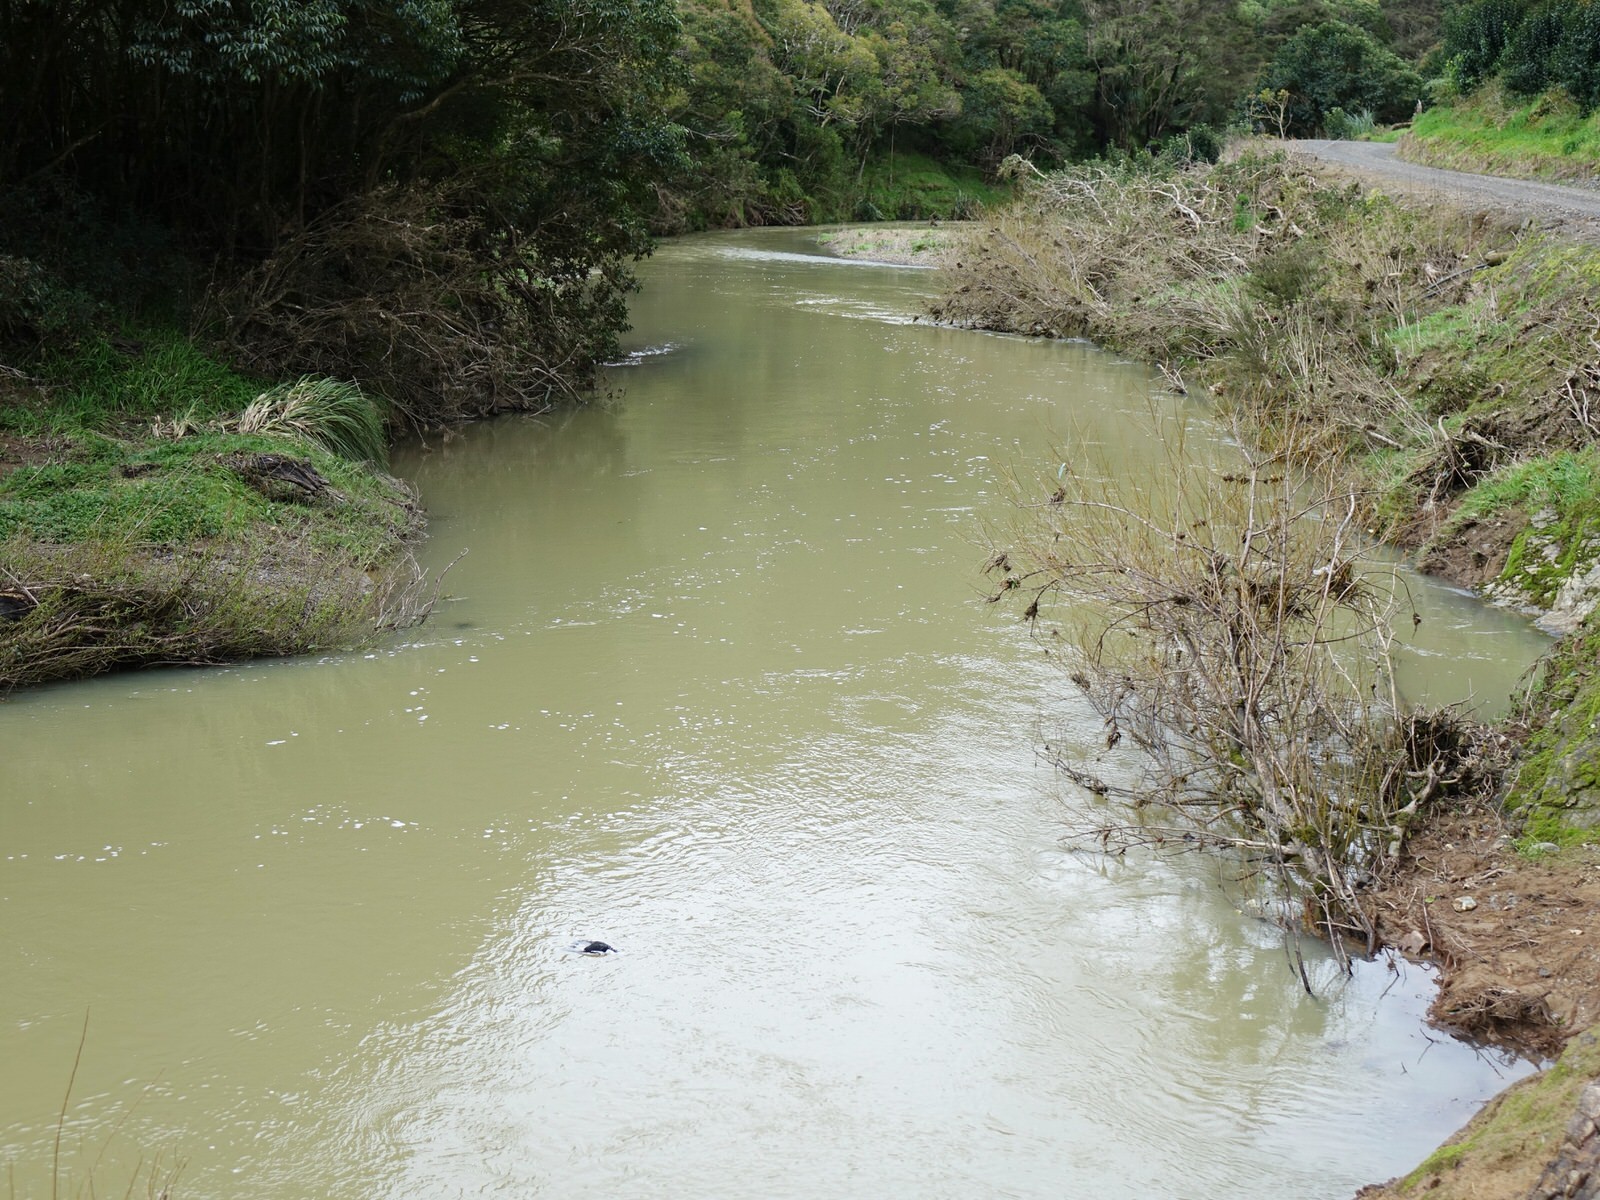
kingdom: Animalia
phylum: Chordata
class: Aves
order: Passeriformes
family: Cracticidae
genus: Gymnorhina
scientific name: Gymnorhina tibicen
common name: Australian magpie
